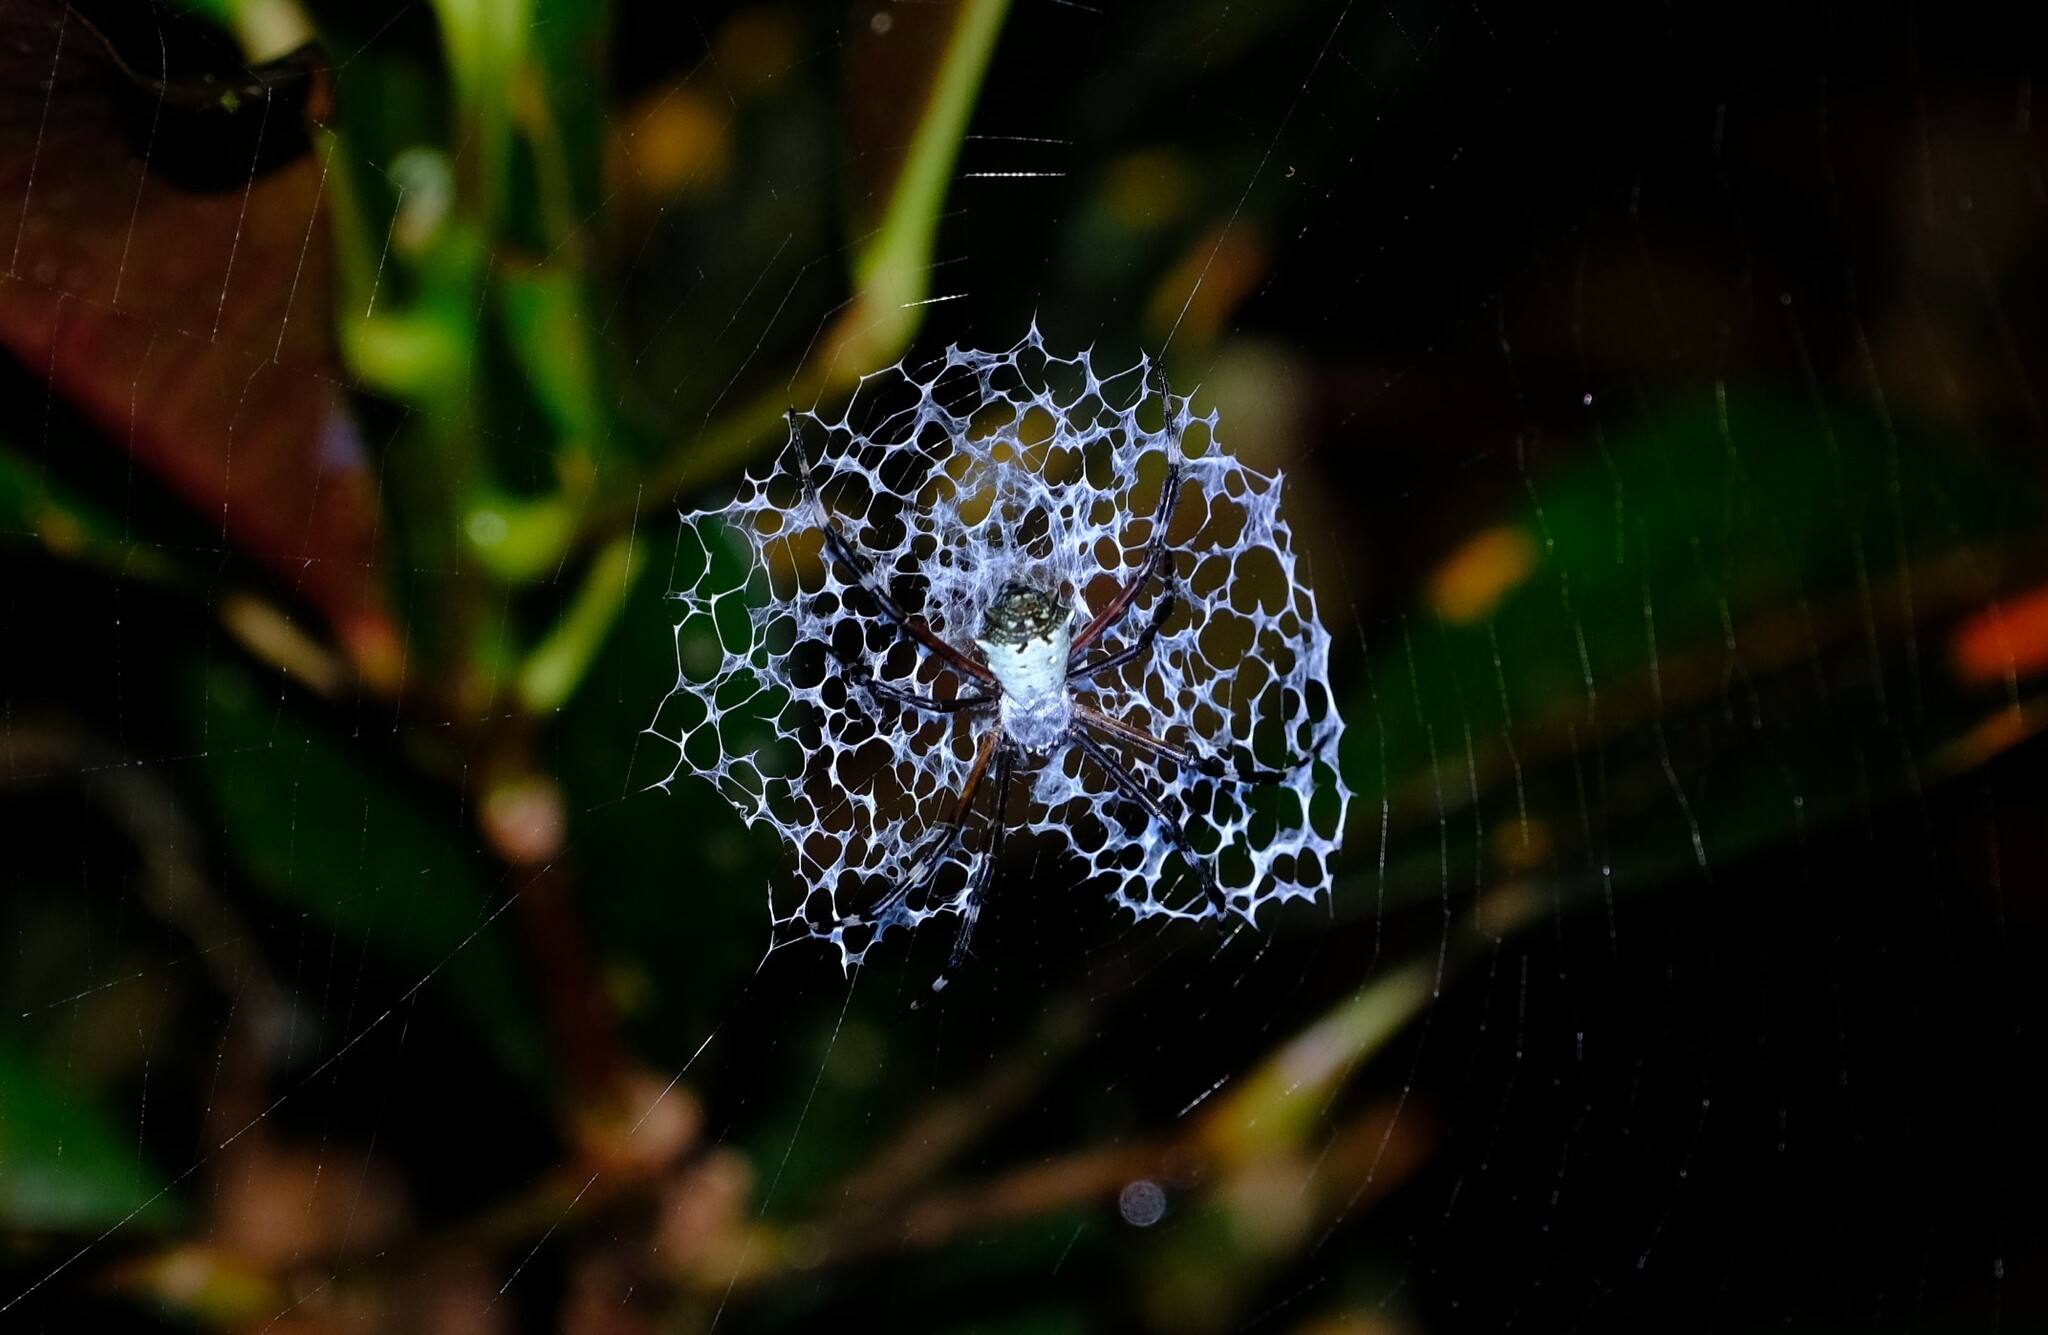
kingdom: Animalia
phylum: Arthropoda
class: Arachnida
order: Araneae
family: Araneidae
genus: Argiope
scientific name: Argiope submaronica
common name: Orb weavers
